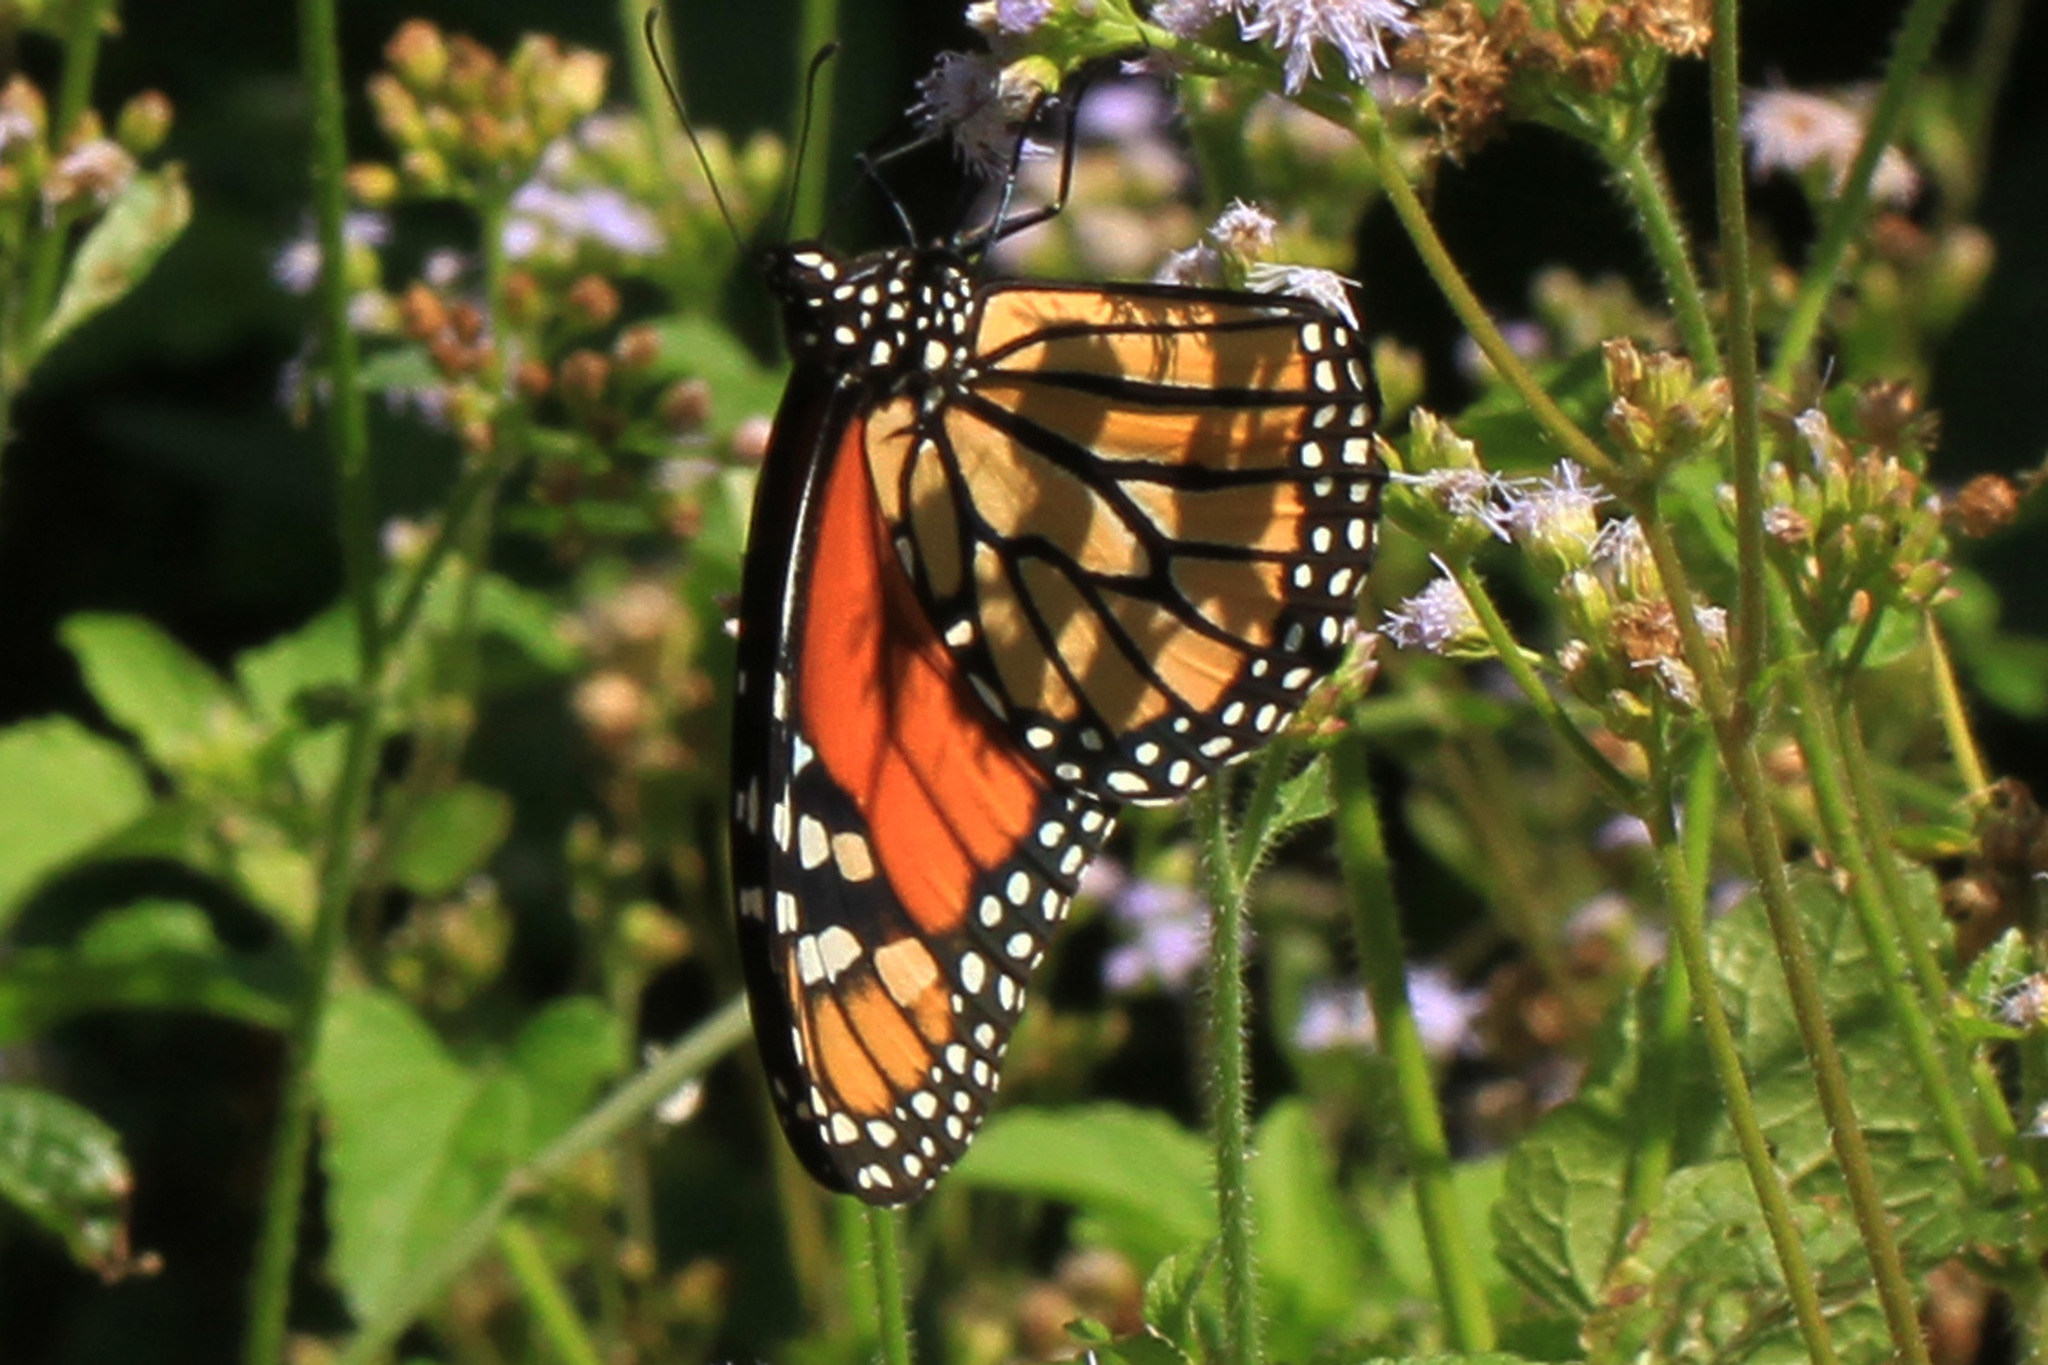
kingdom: Animalia
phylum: Arthropoda
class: Insecta
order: Lepidoptera
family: Nymphalidae
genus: Danaus
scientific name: Danaus plexippus
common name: Monarch
